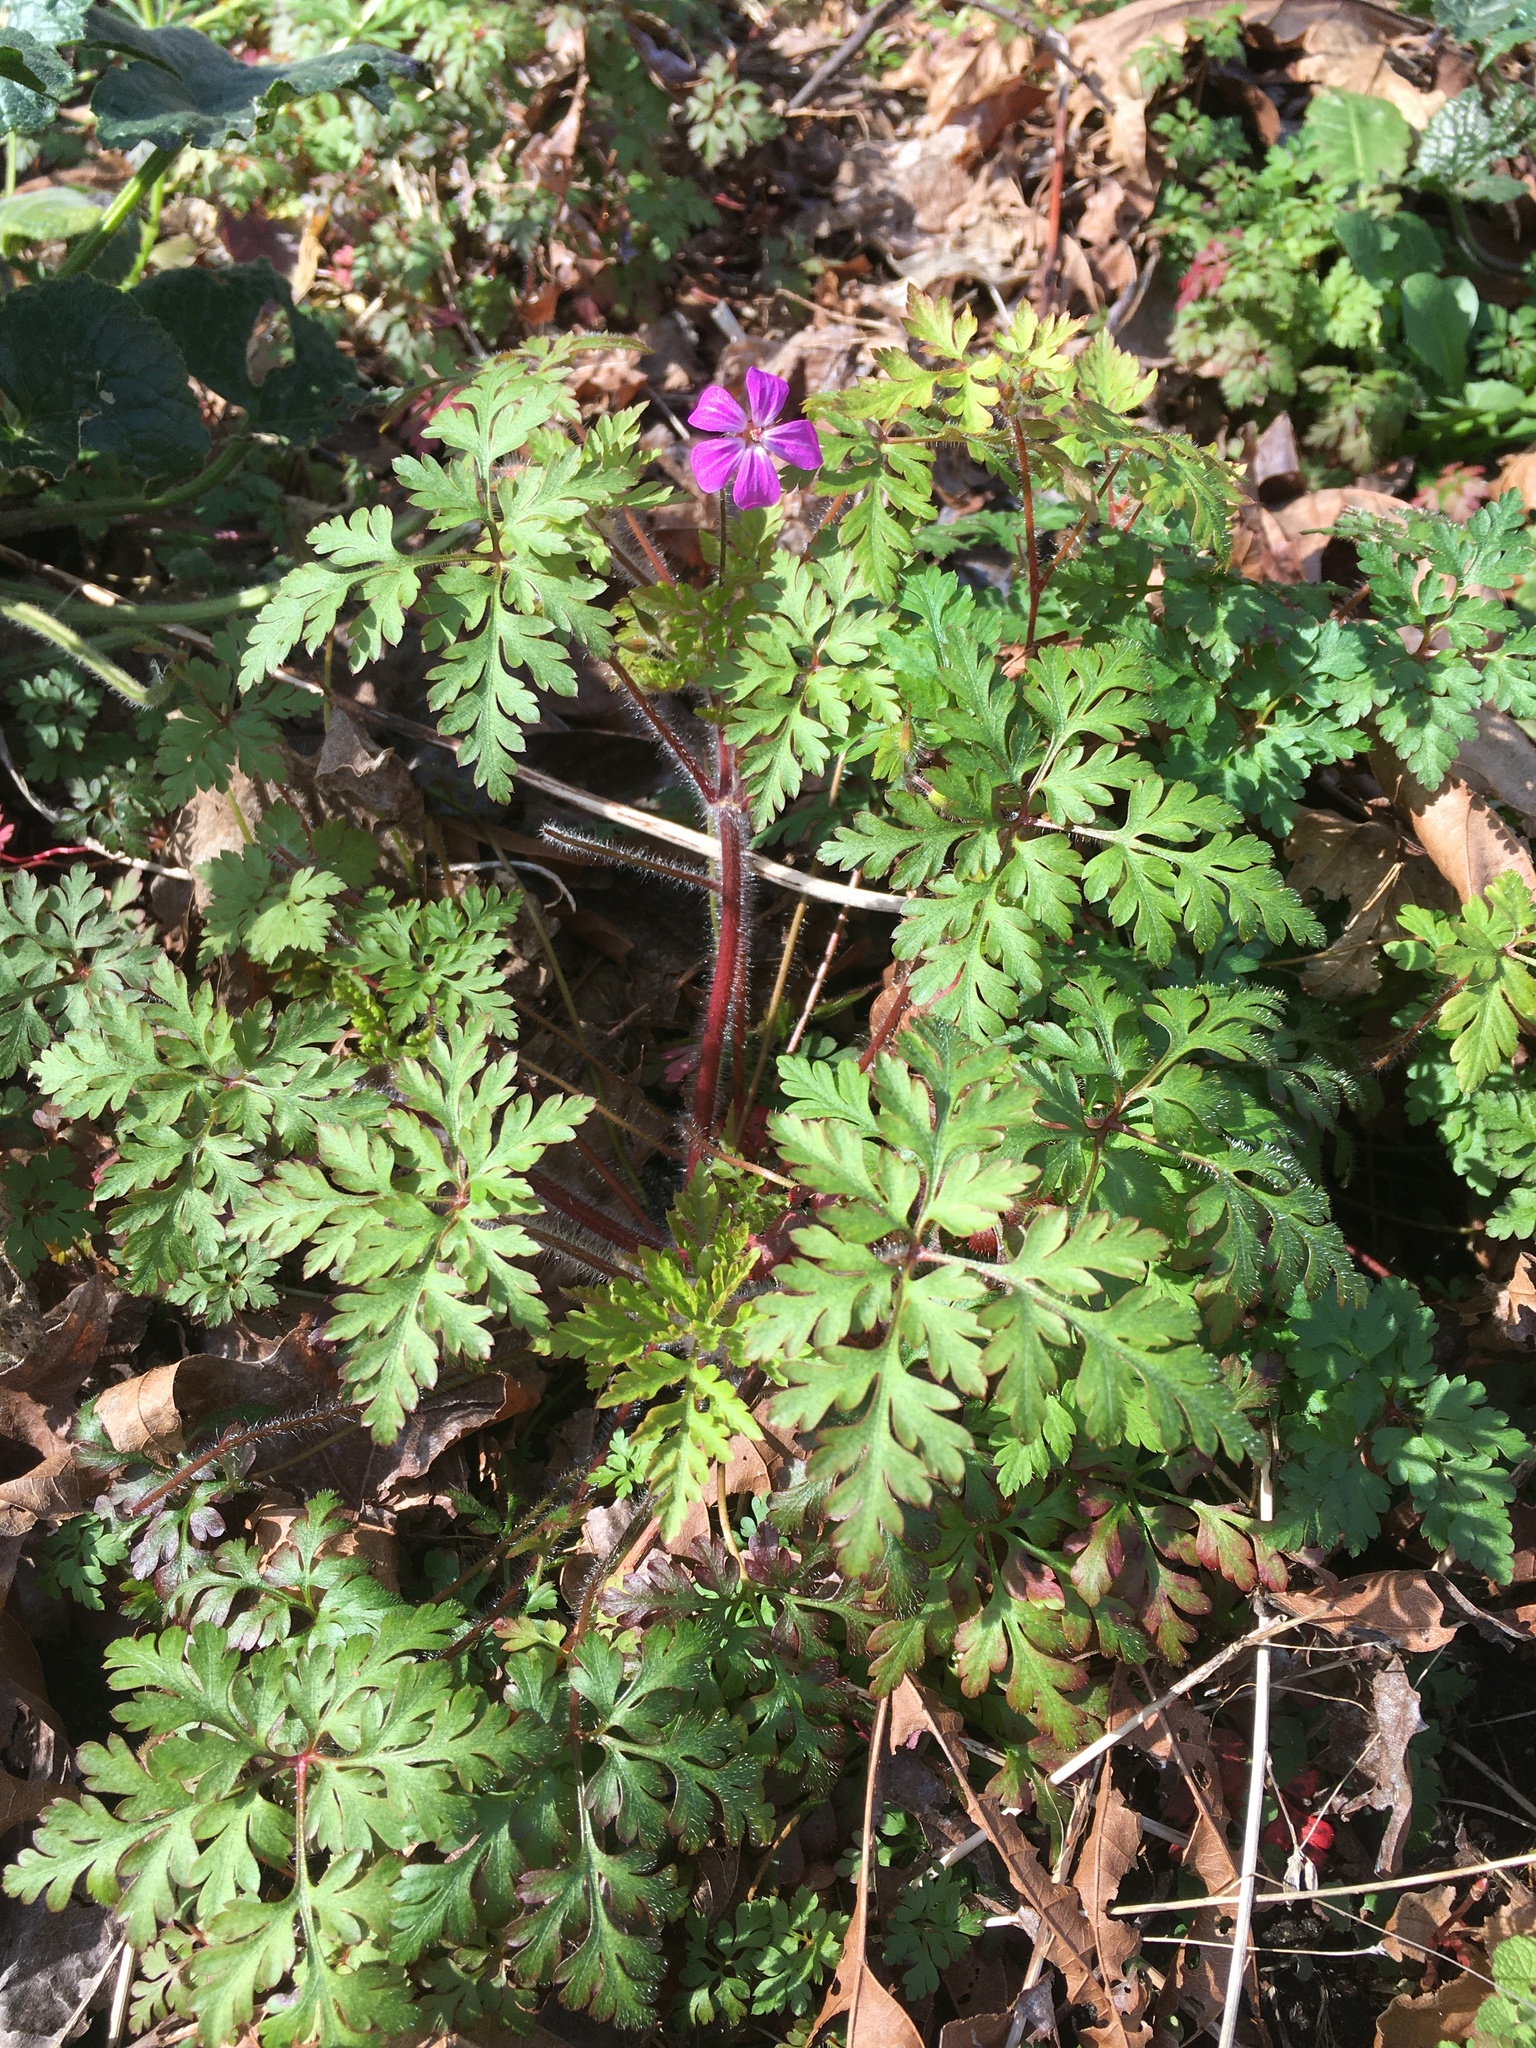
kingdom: Plantae
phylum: Tracheophyta
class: Magnoliopsida
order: Geraniales
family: Geraniaceae
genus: Geranium
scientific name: Geranium robertianum
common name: Herb-robert
